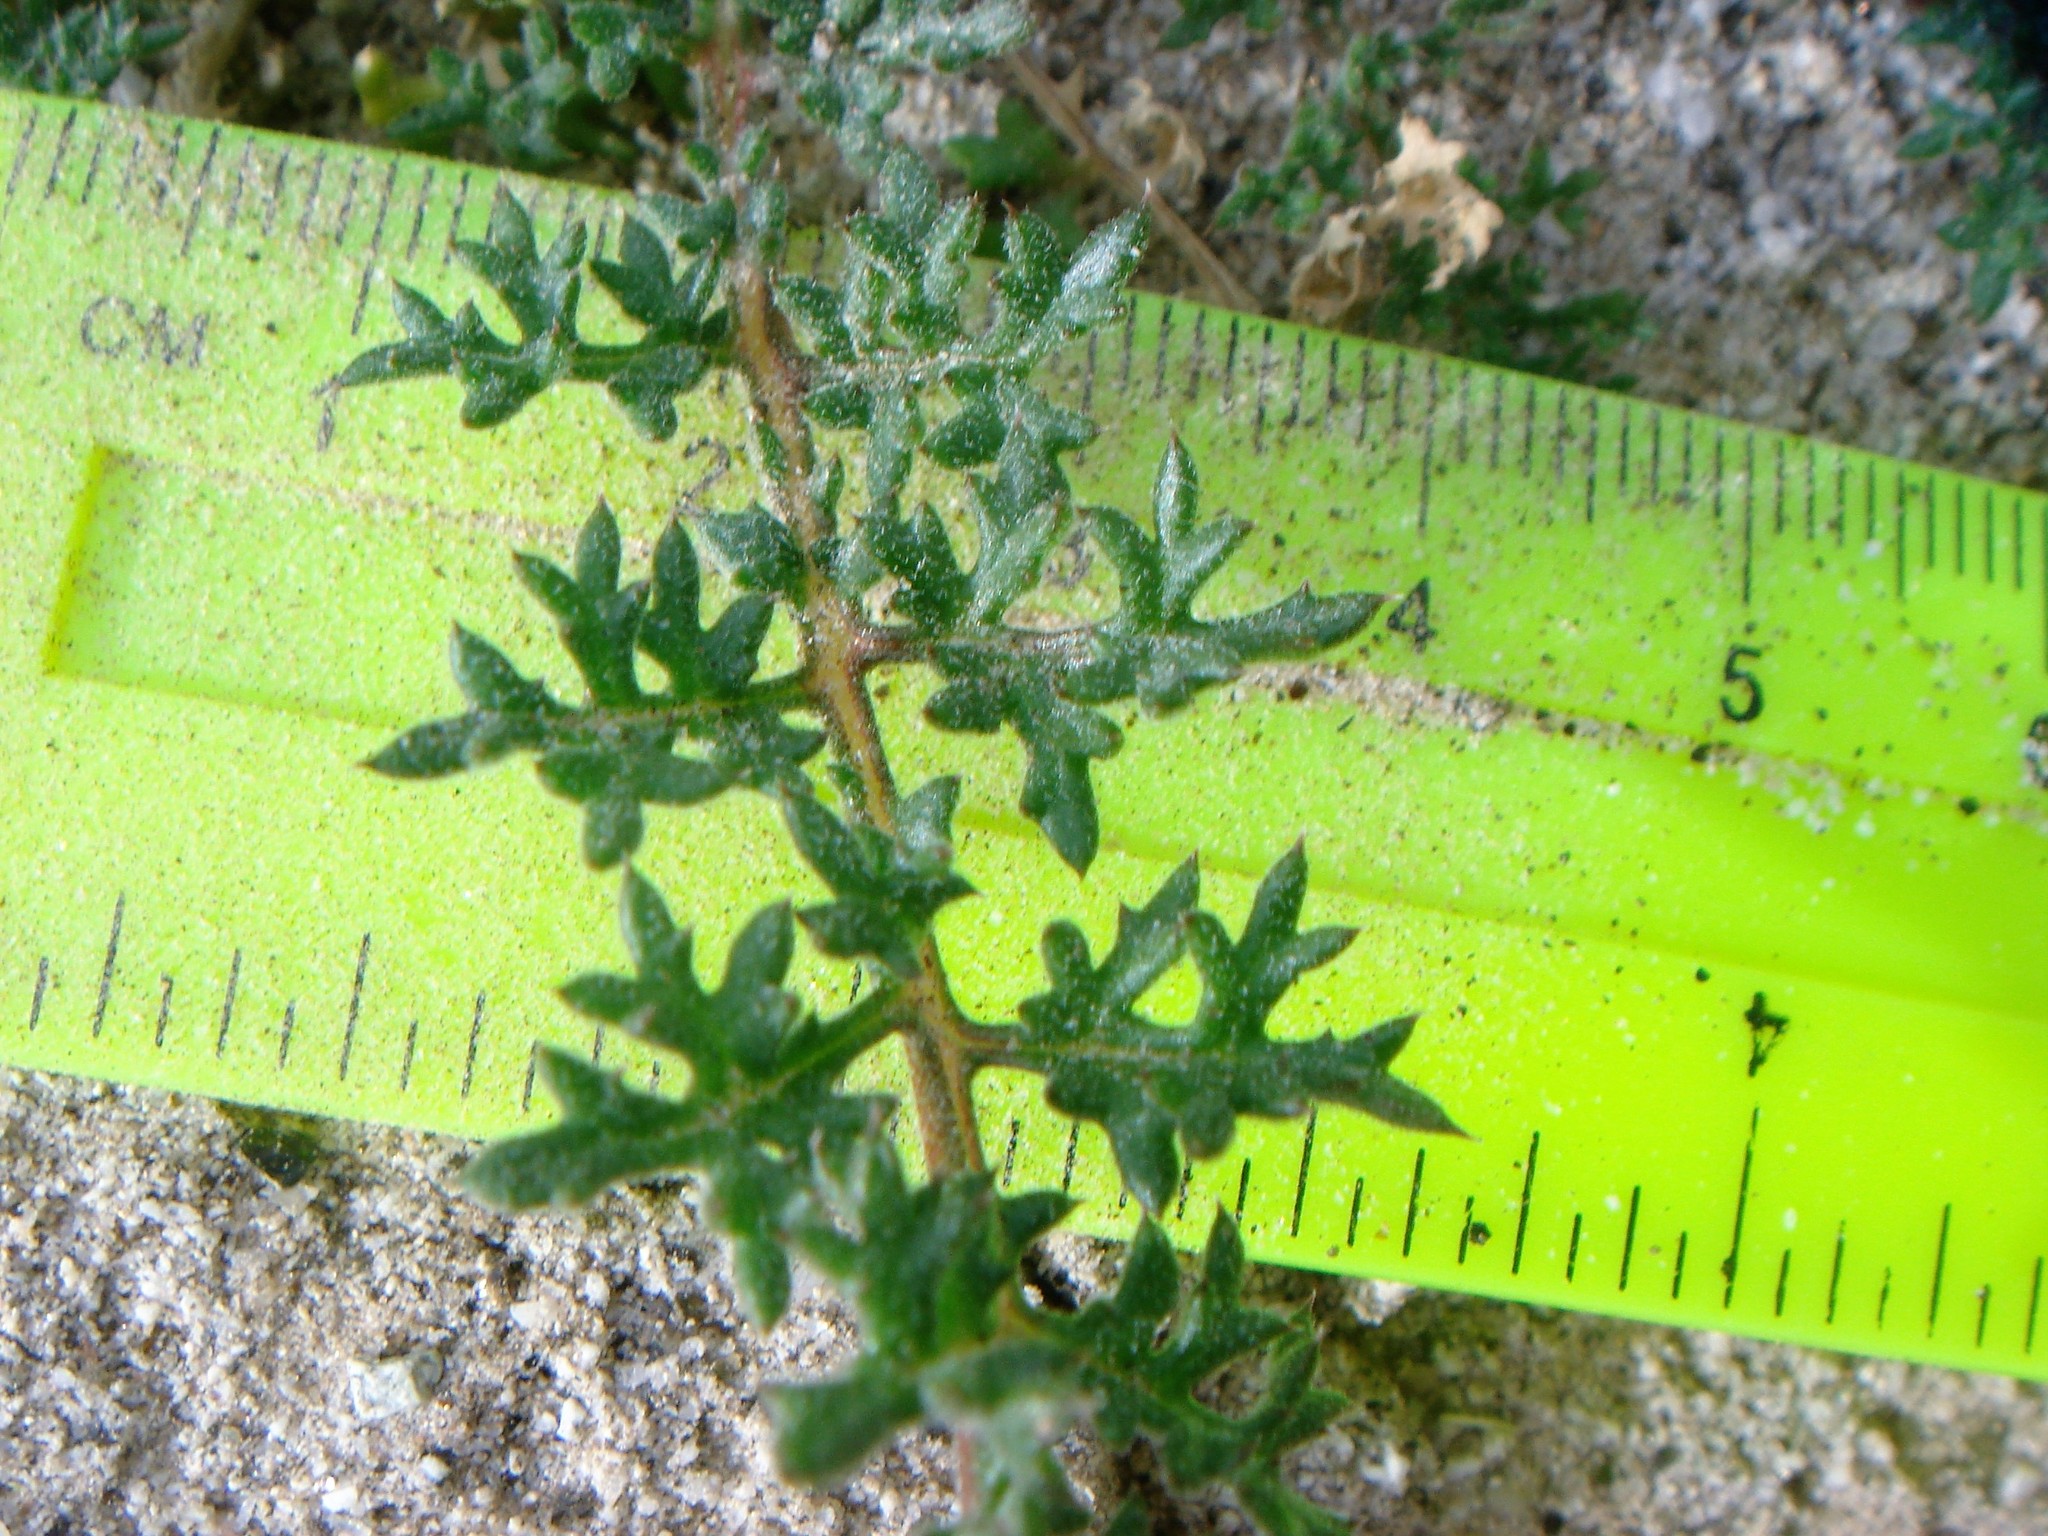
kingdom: Plantae
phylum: Tracheophyta
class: Magnoliopsida
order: Ericales
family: Polemoniaceae
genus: Gilia
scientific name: Gilia stellata
